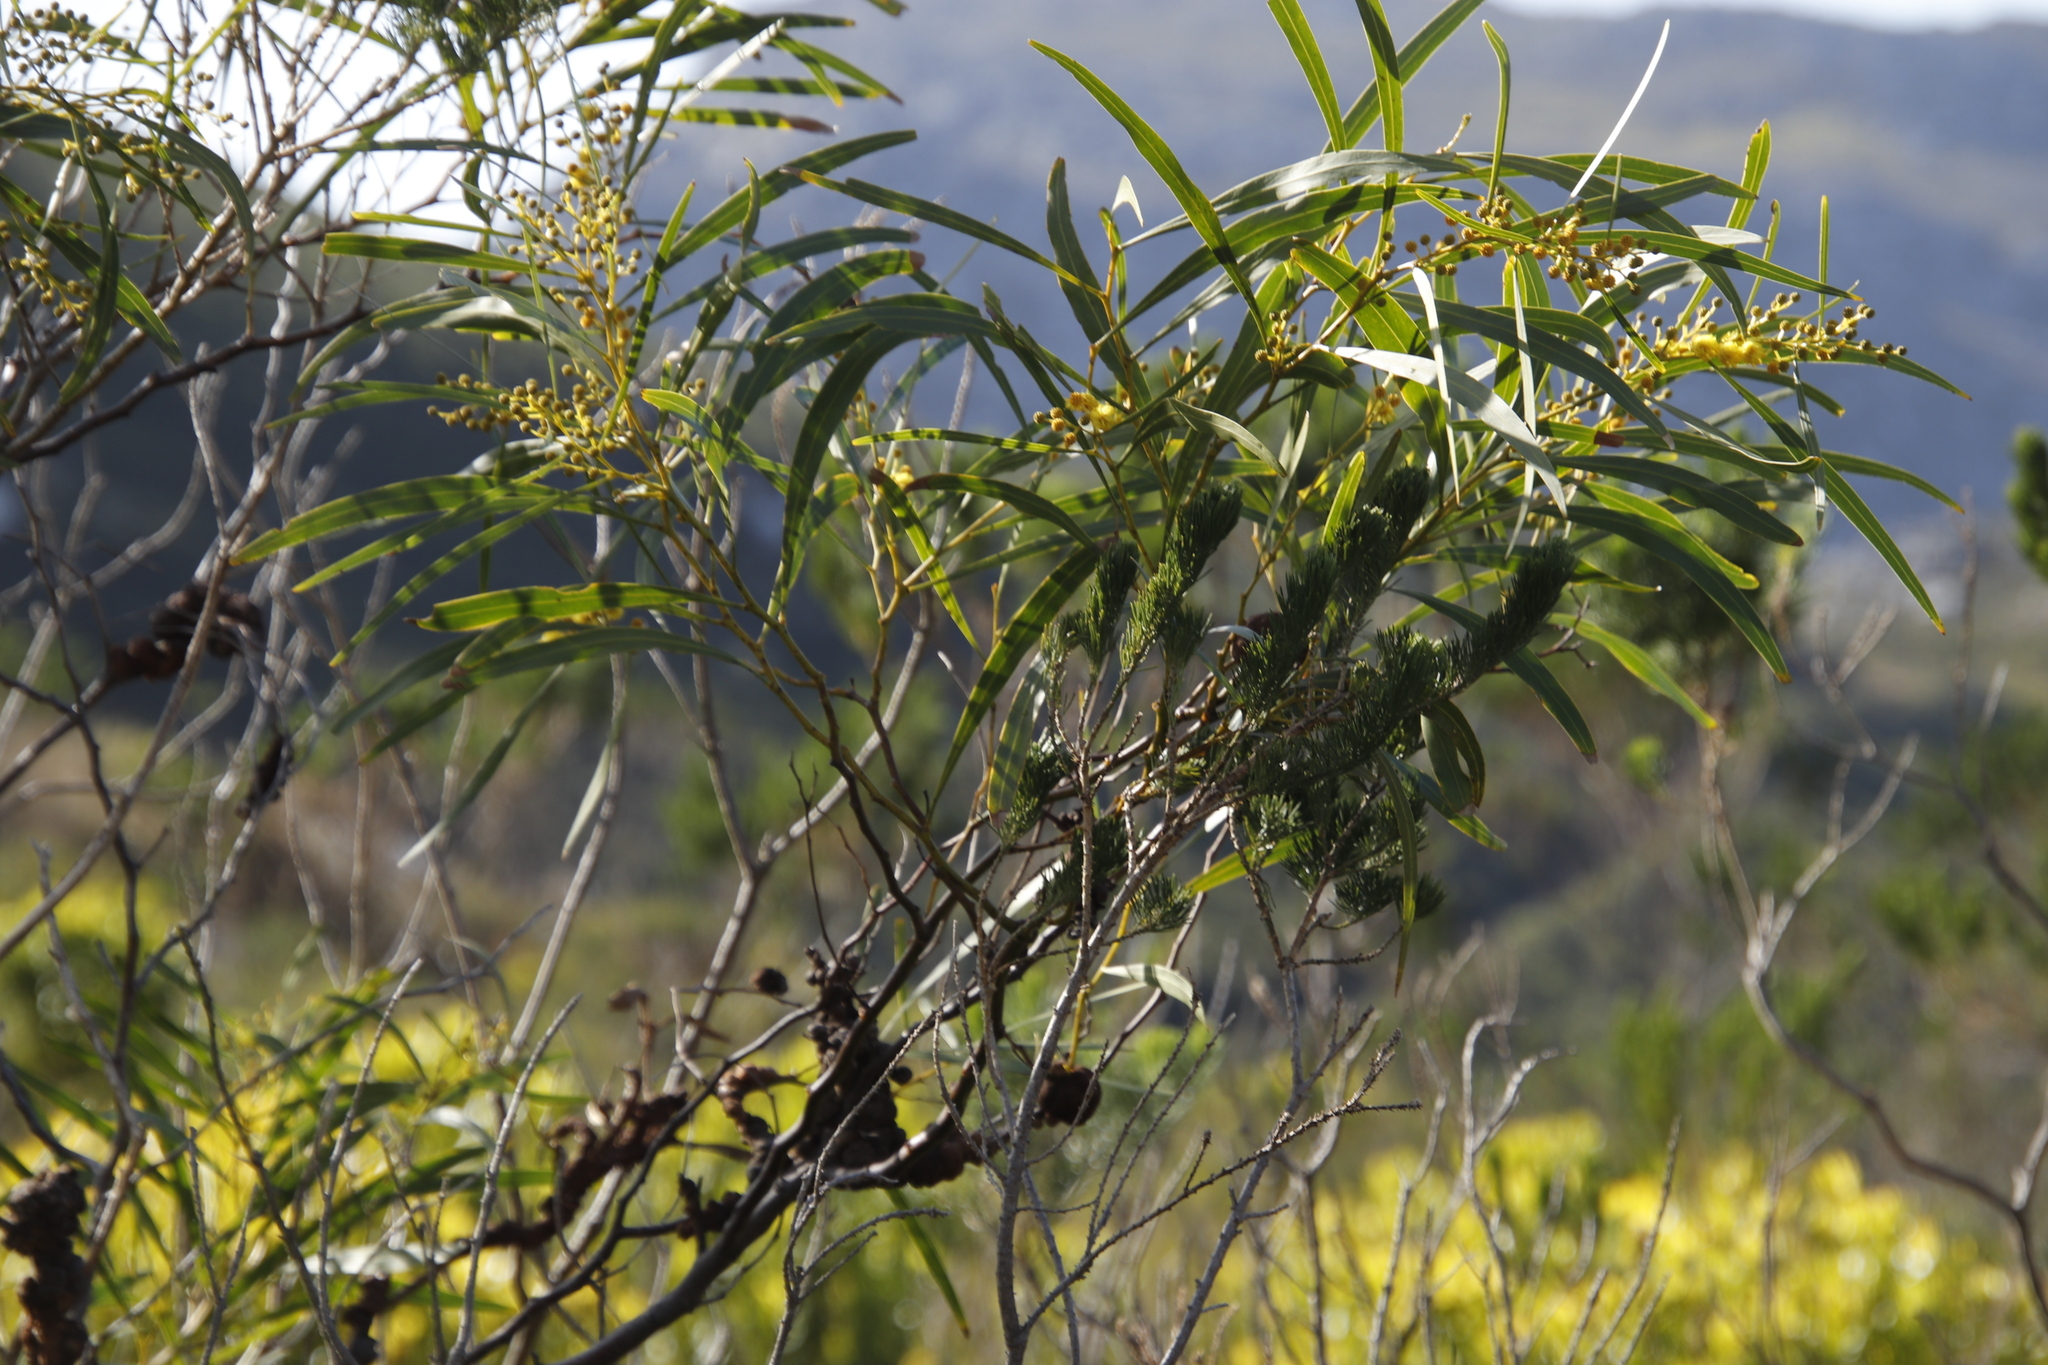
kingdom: Plantae
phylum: Tracheophyta
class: Magnoliopsida
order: Fabales
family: Fabaceae
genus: Acacia
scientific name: Acacia saligna
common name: Orange wattle
